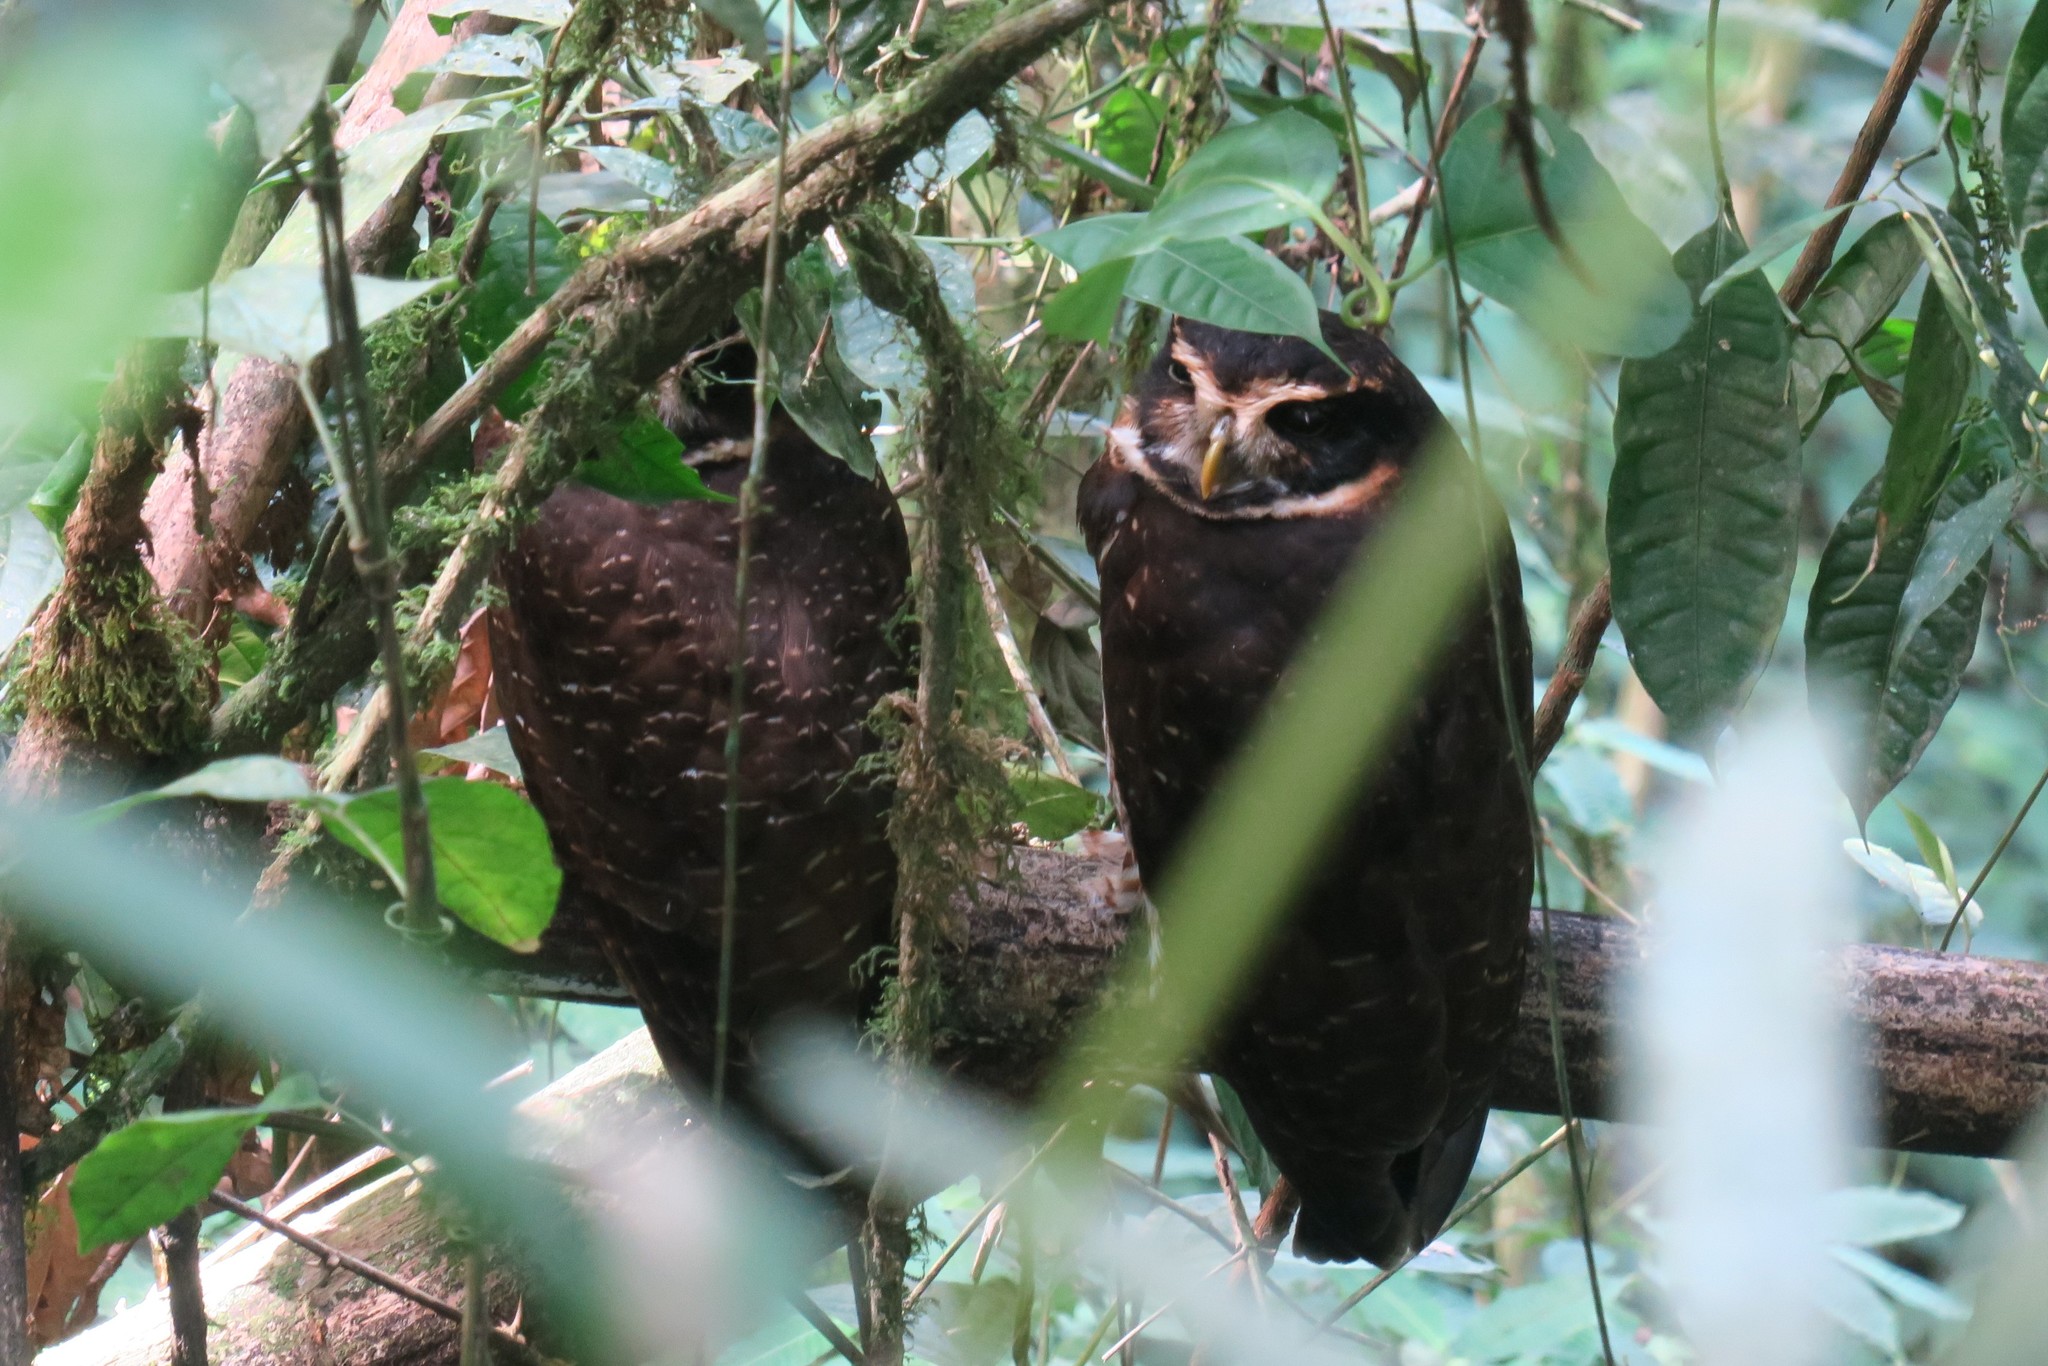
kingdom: Animalia
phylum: Chordata
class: Aves
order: Strigiformes
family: Strigidae
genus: Pulsatrix
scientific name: Pulsatrix melanota
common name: Band-bellied owl
